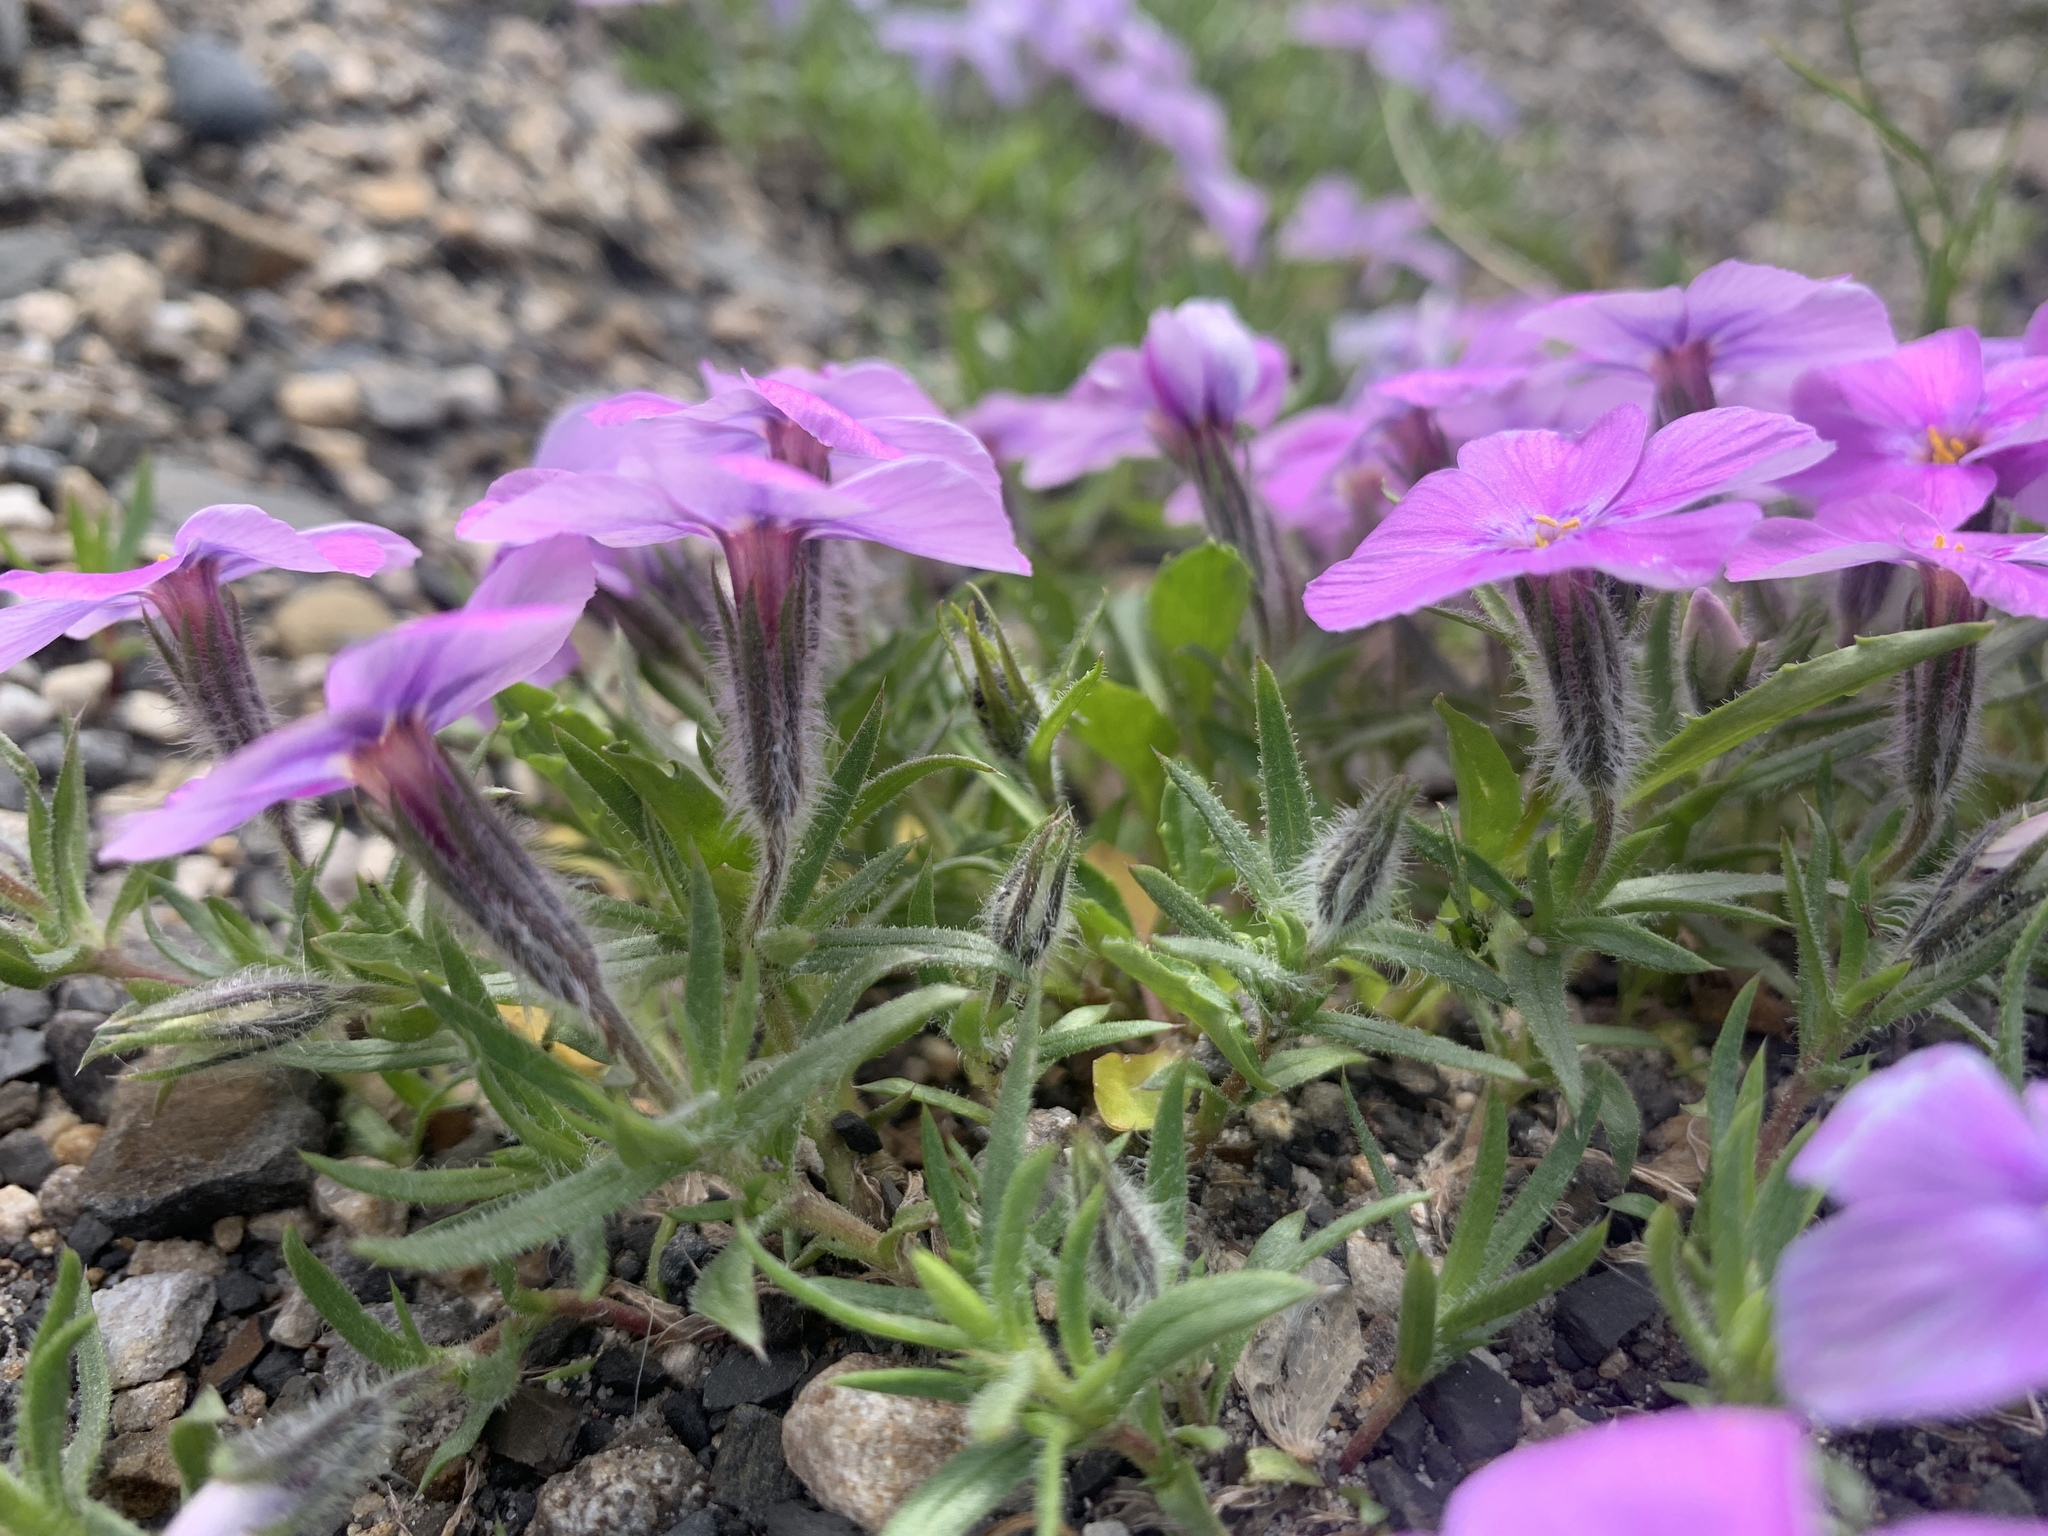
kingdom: Plantae
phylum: Tracheophyta
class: Magnoliopsida
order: Ericales
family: Polemoniaceae
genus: Phlox
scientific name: Phlox richardsonii
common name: Richardson's phlox
